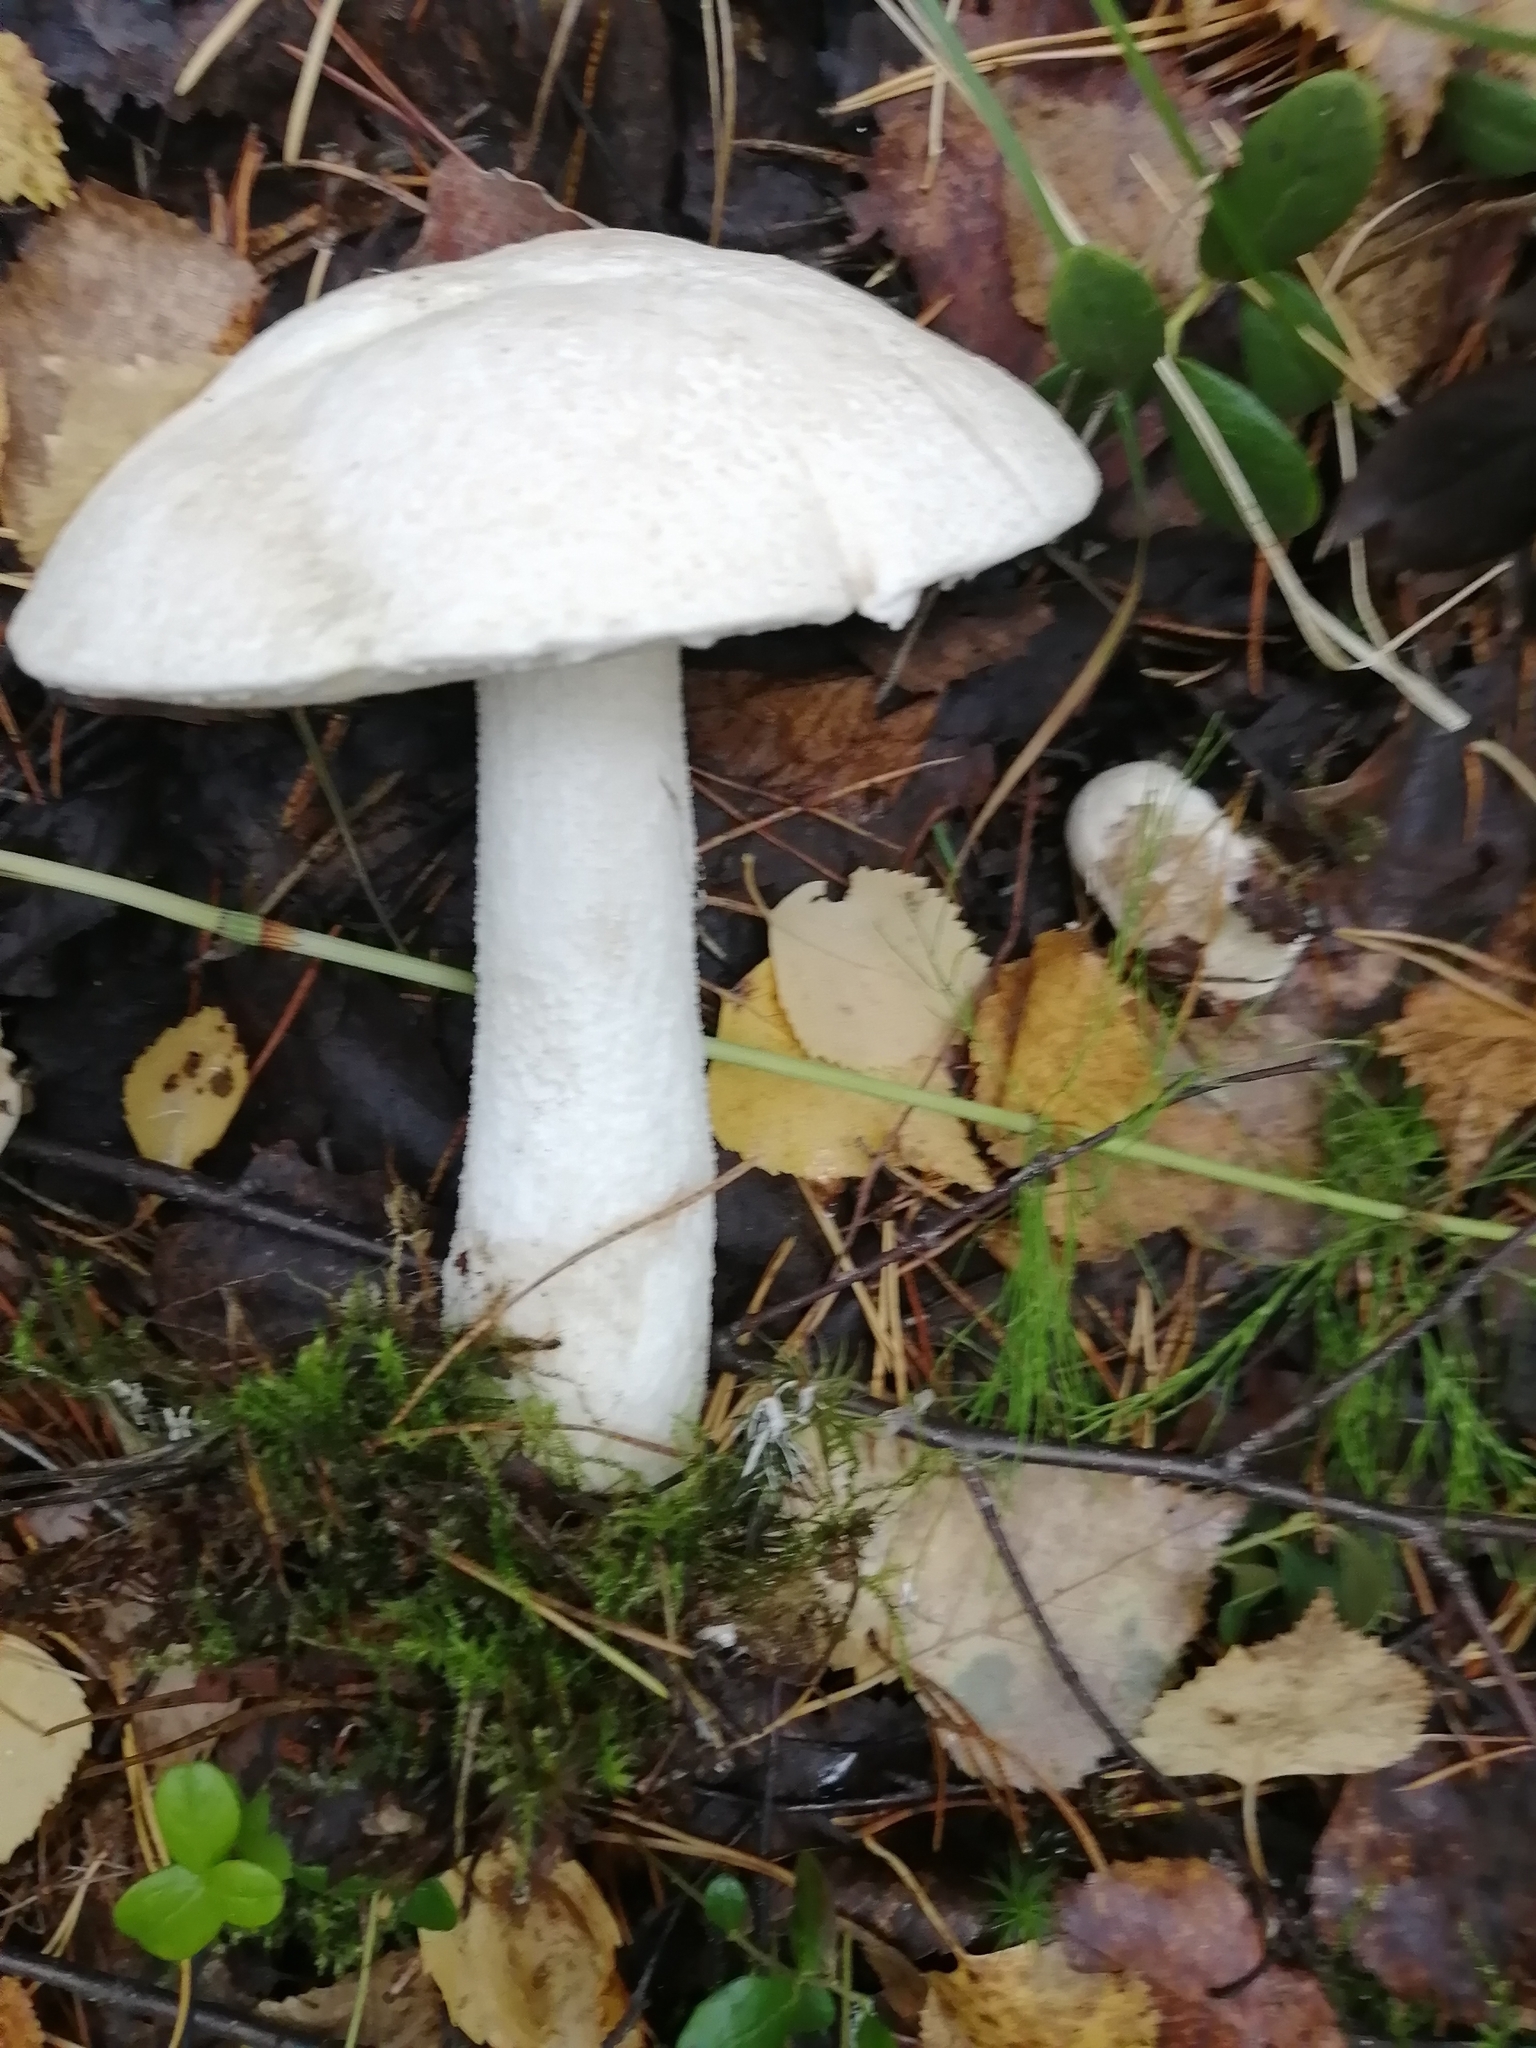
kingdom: Fungi
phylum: Basidiomycota
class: Agaricomycetes
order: Boletales
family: Boletaceae
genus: Leccinum
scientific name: Leccinum versipelle
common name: Orange birch bolete
